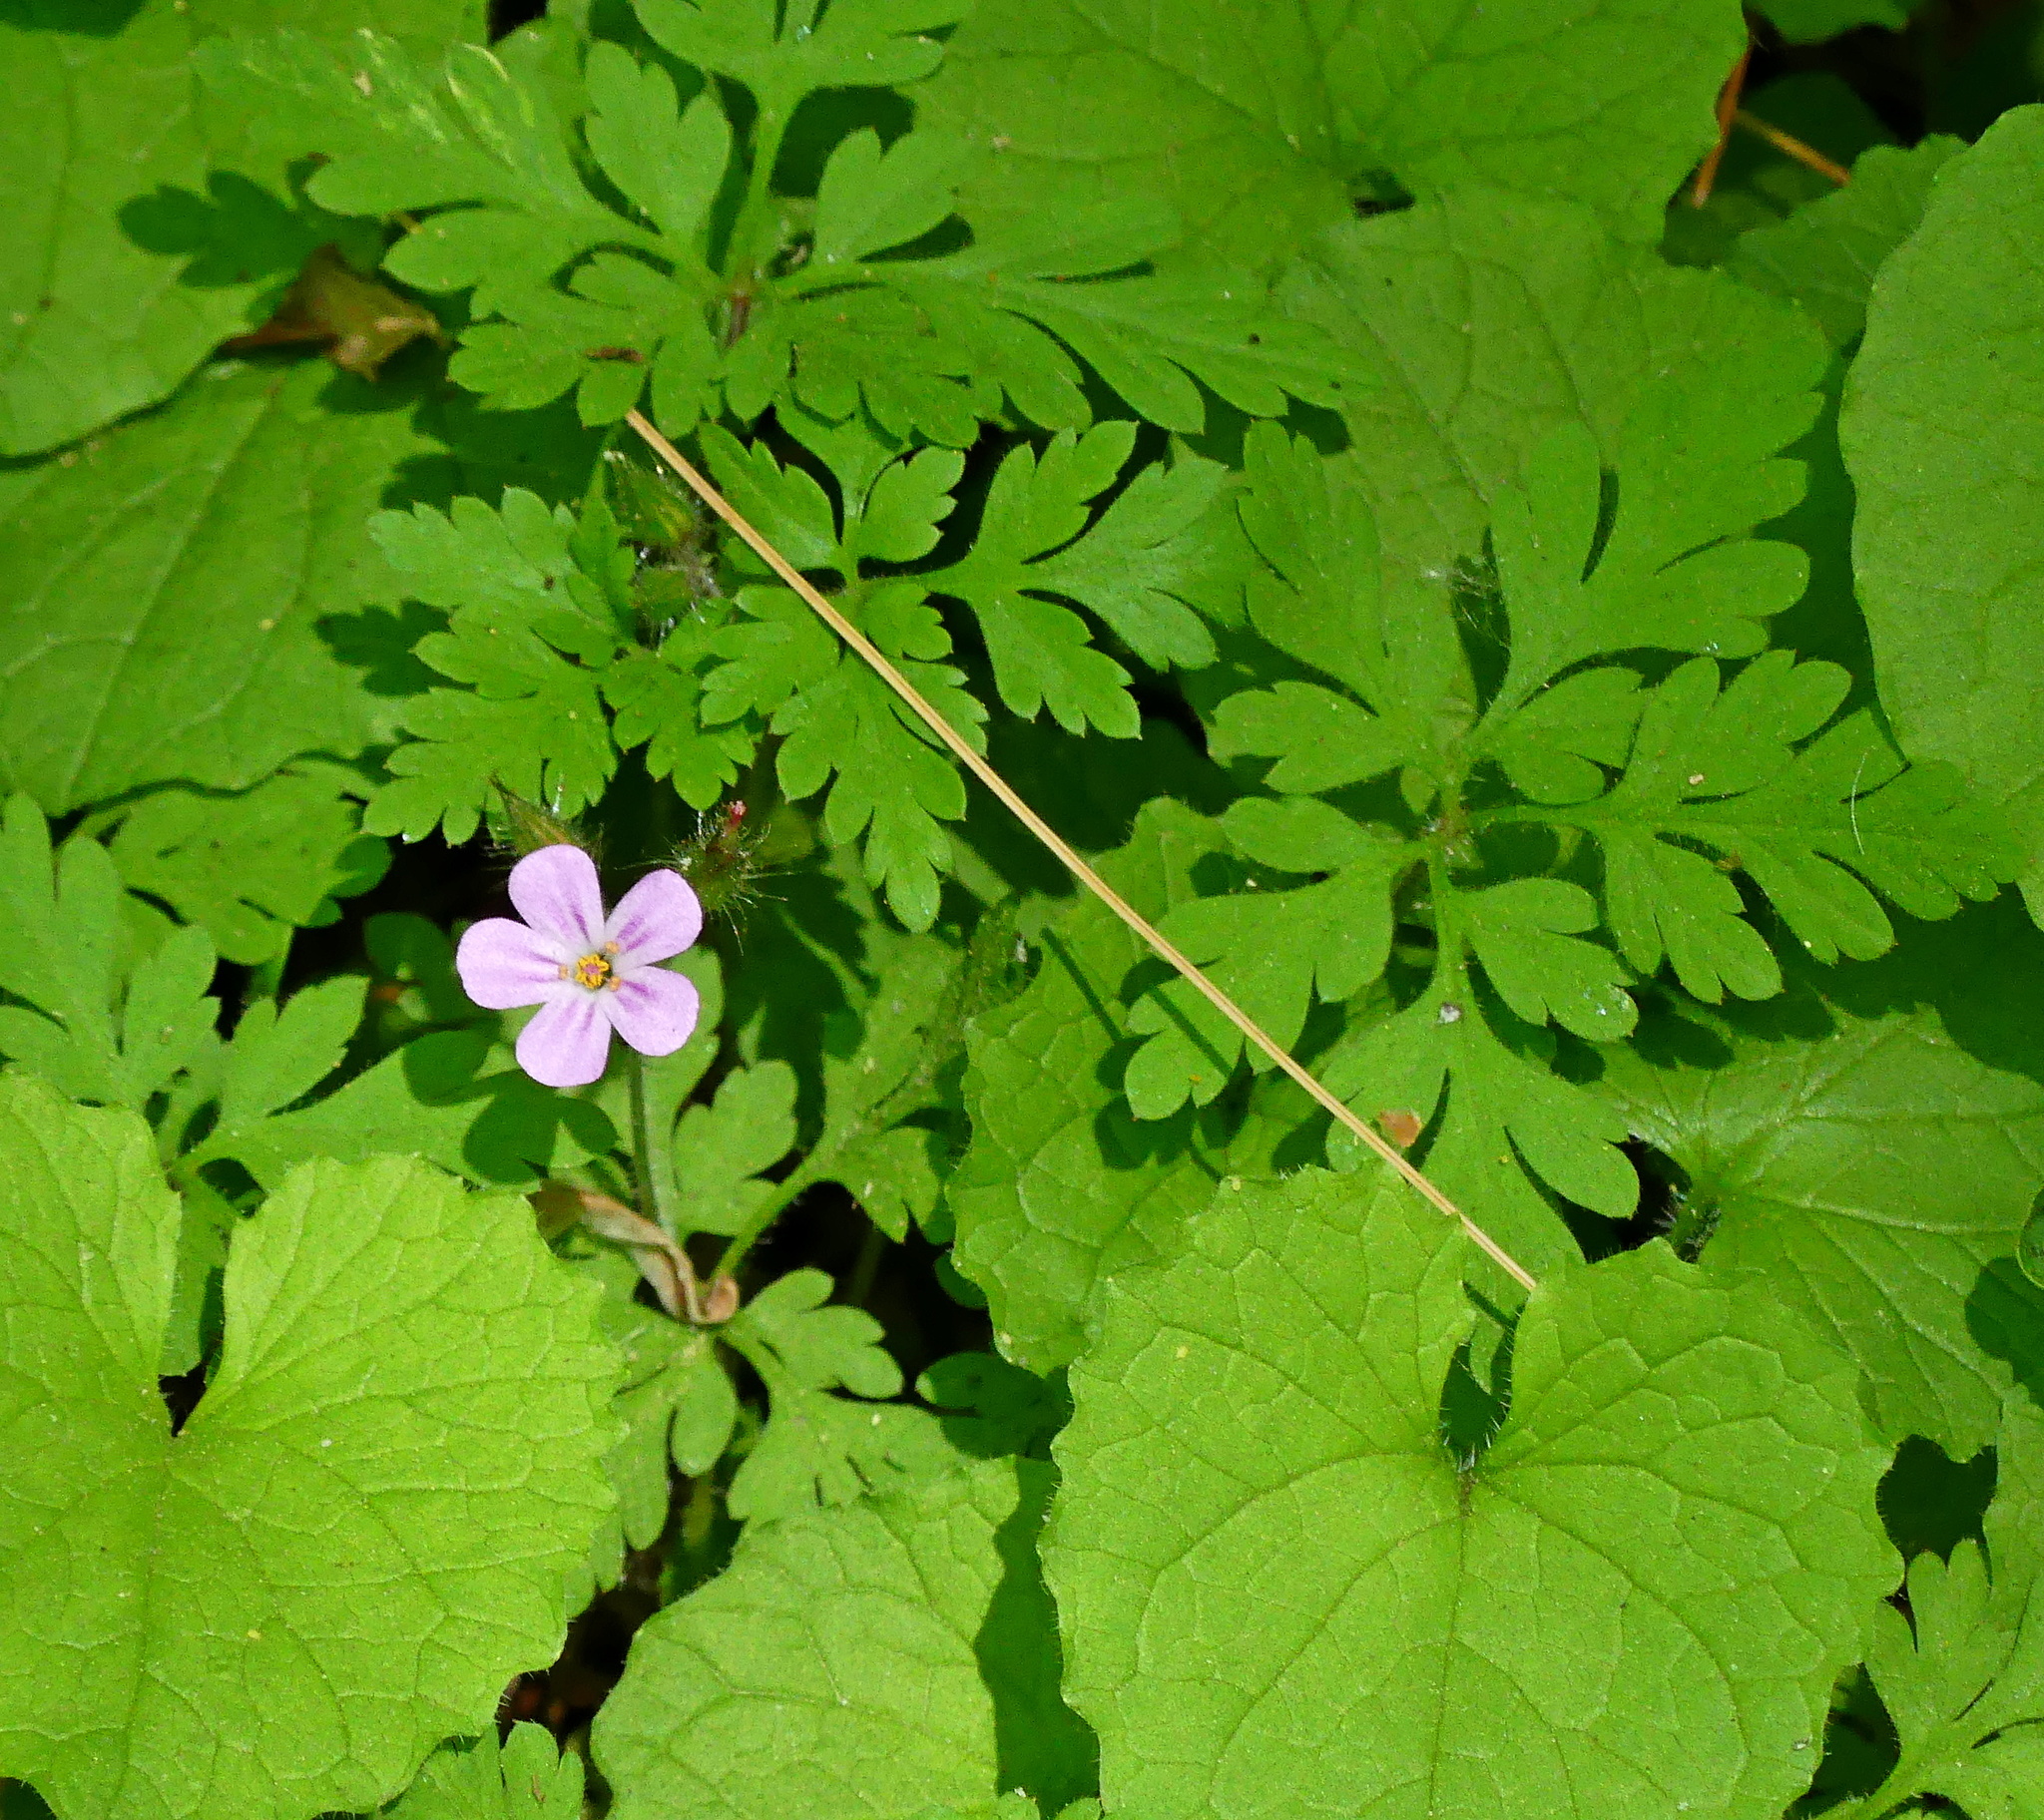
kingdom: Plantae
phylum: Tracheophyta
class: Magnoliopsida
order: Geraniales
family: Geraniaceae
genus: Geranium
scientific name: Geranium robertianum
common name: Herb-robert
